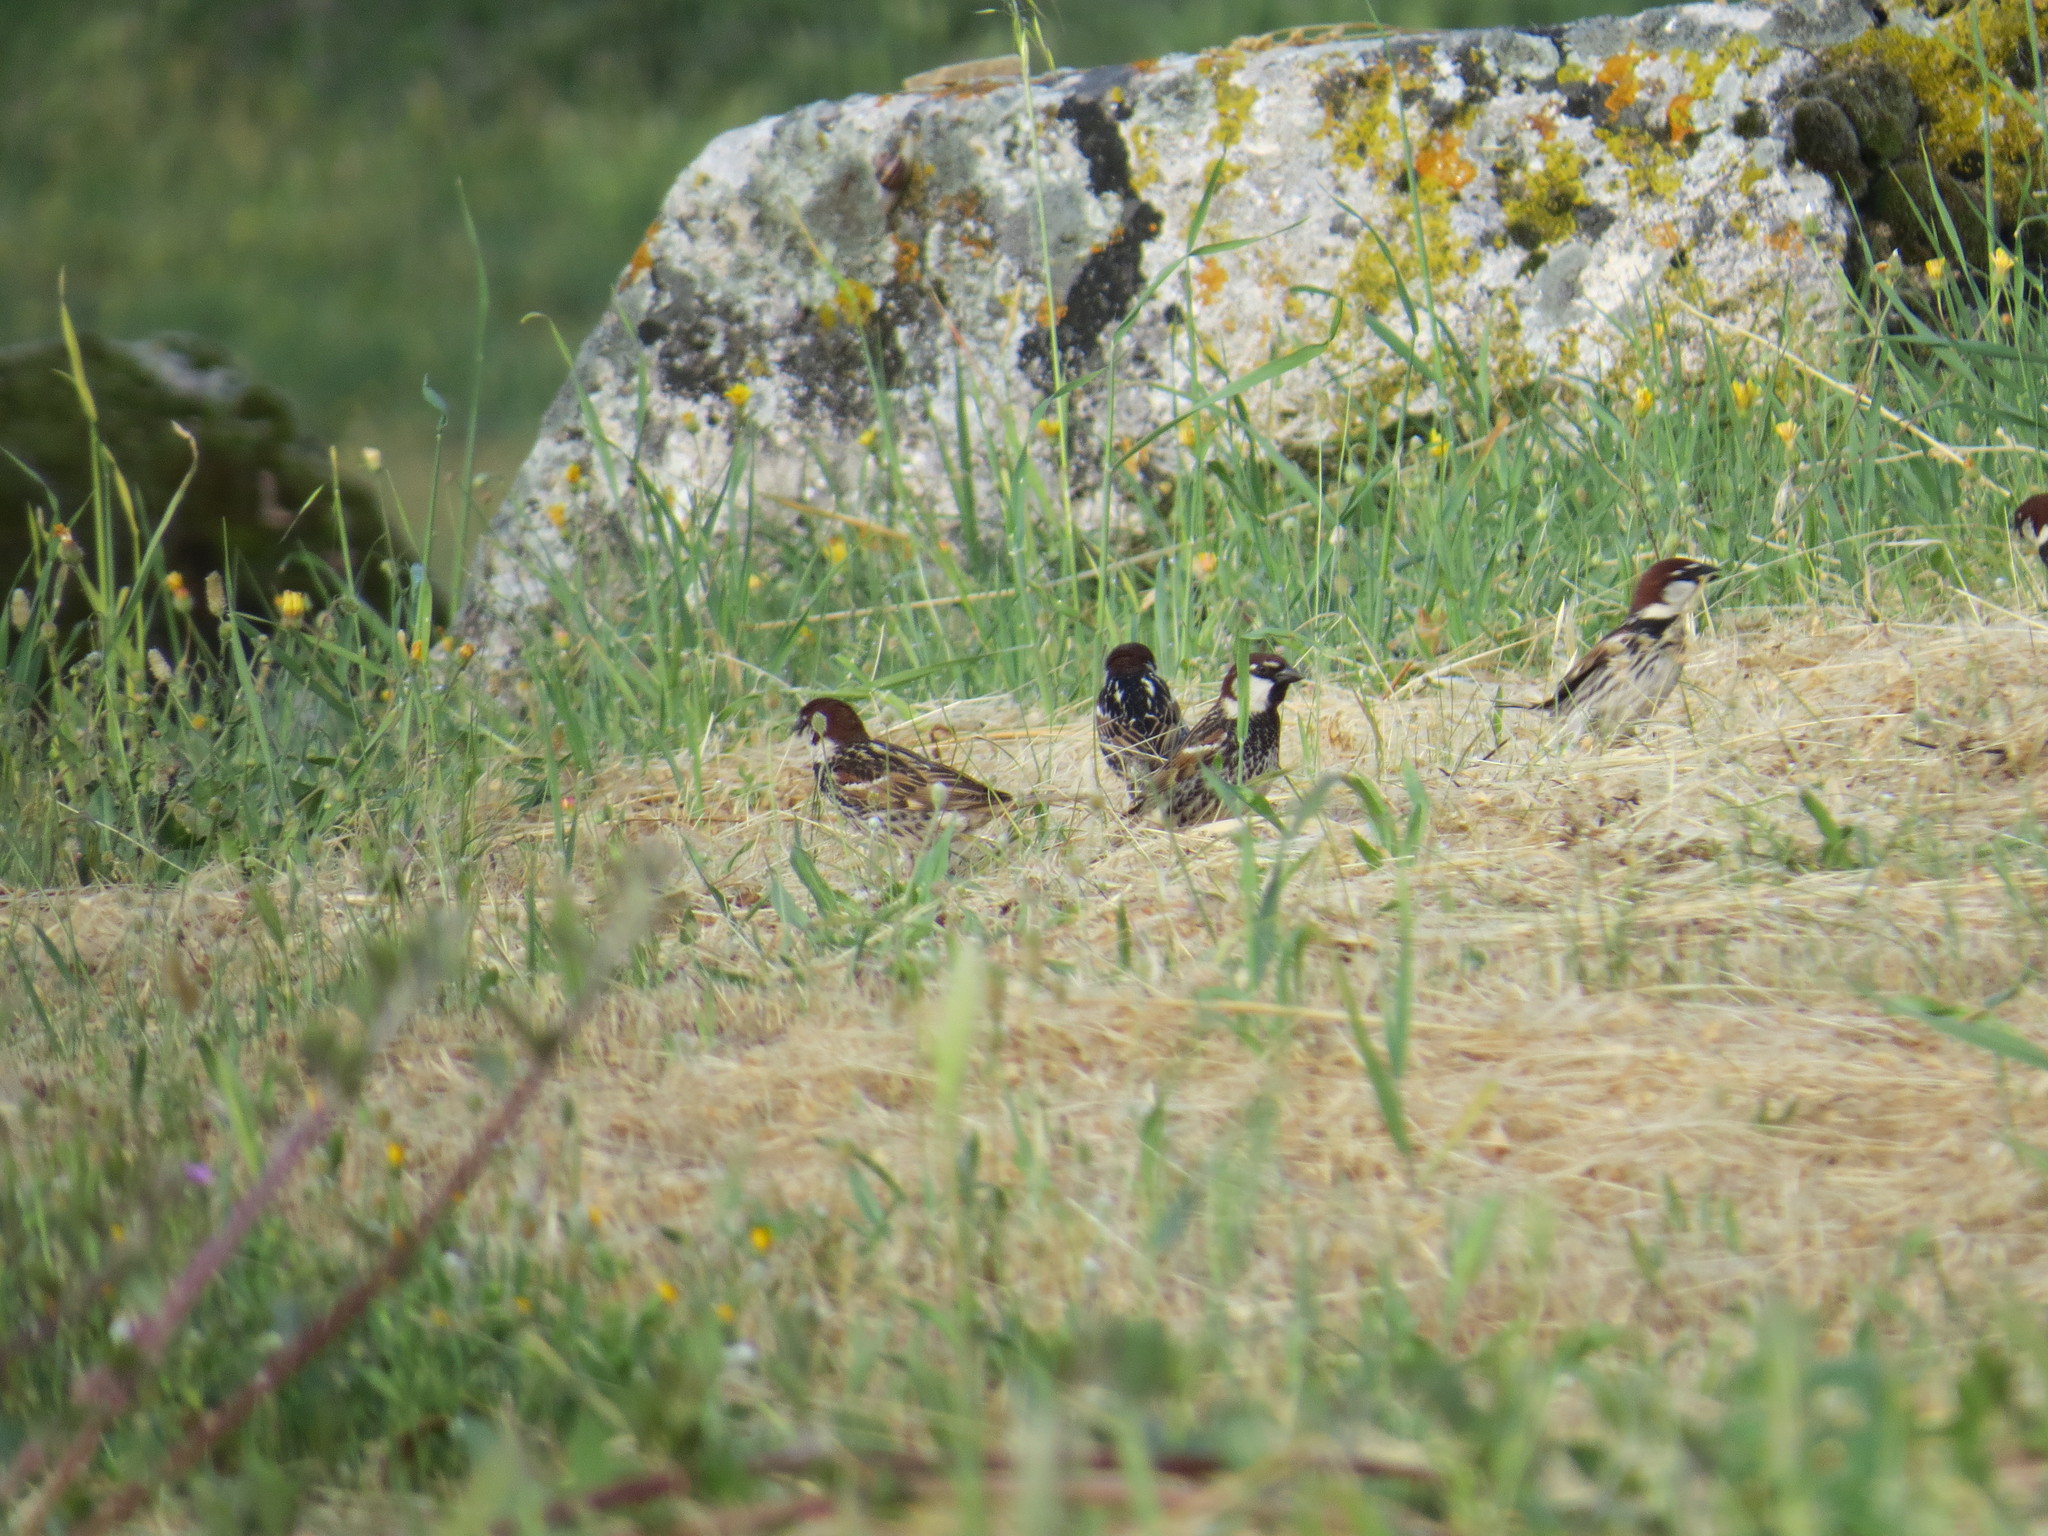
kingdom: Animalia
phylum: Chordata
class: Aves
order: Passeriformes
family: Passeridae
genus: Passer
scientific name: Passer hispaniolensis
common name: Spanish sparrow
